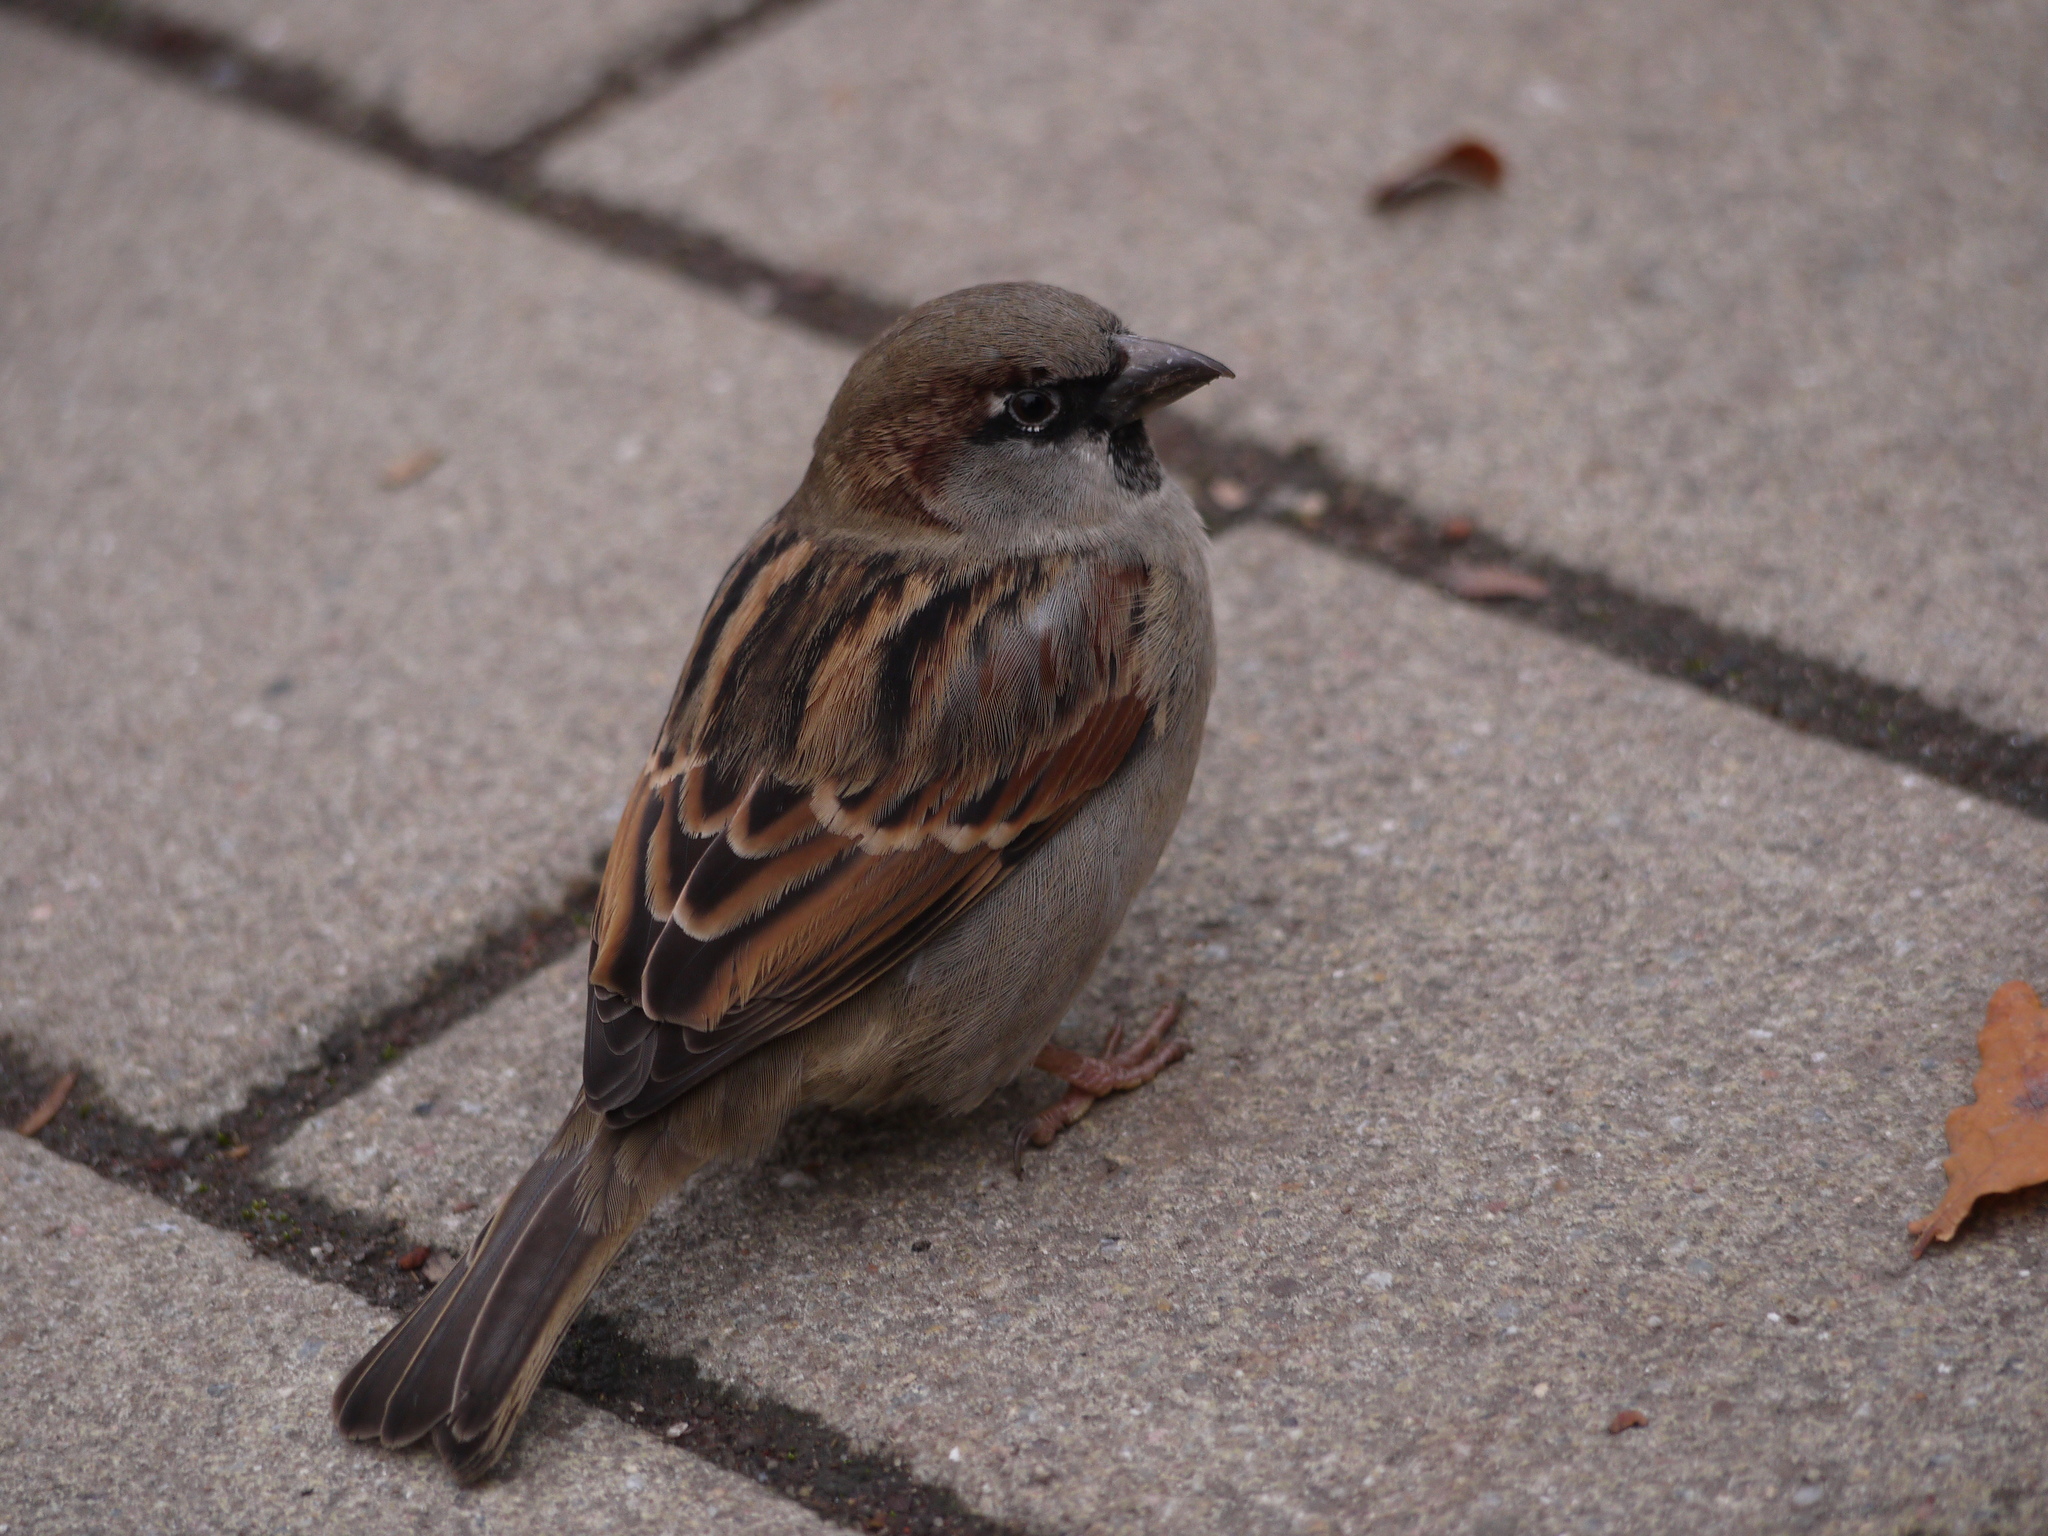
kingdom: Animalia
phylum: Chordata
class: Aves
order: Passeriformes
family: Passeridae
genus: Passer
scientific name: Passer domesticus
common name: House sparrow
